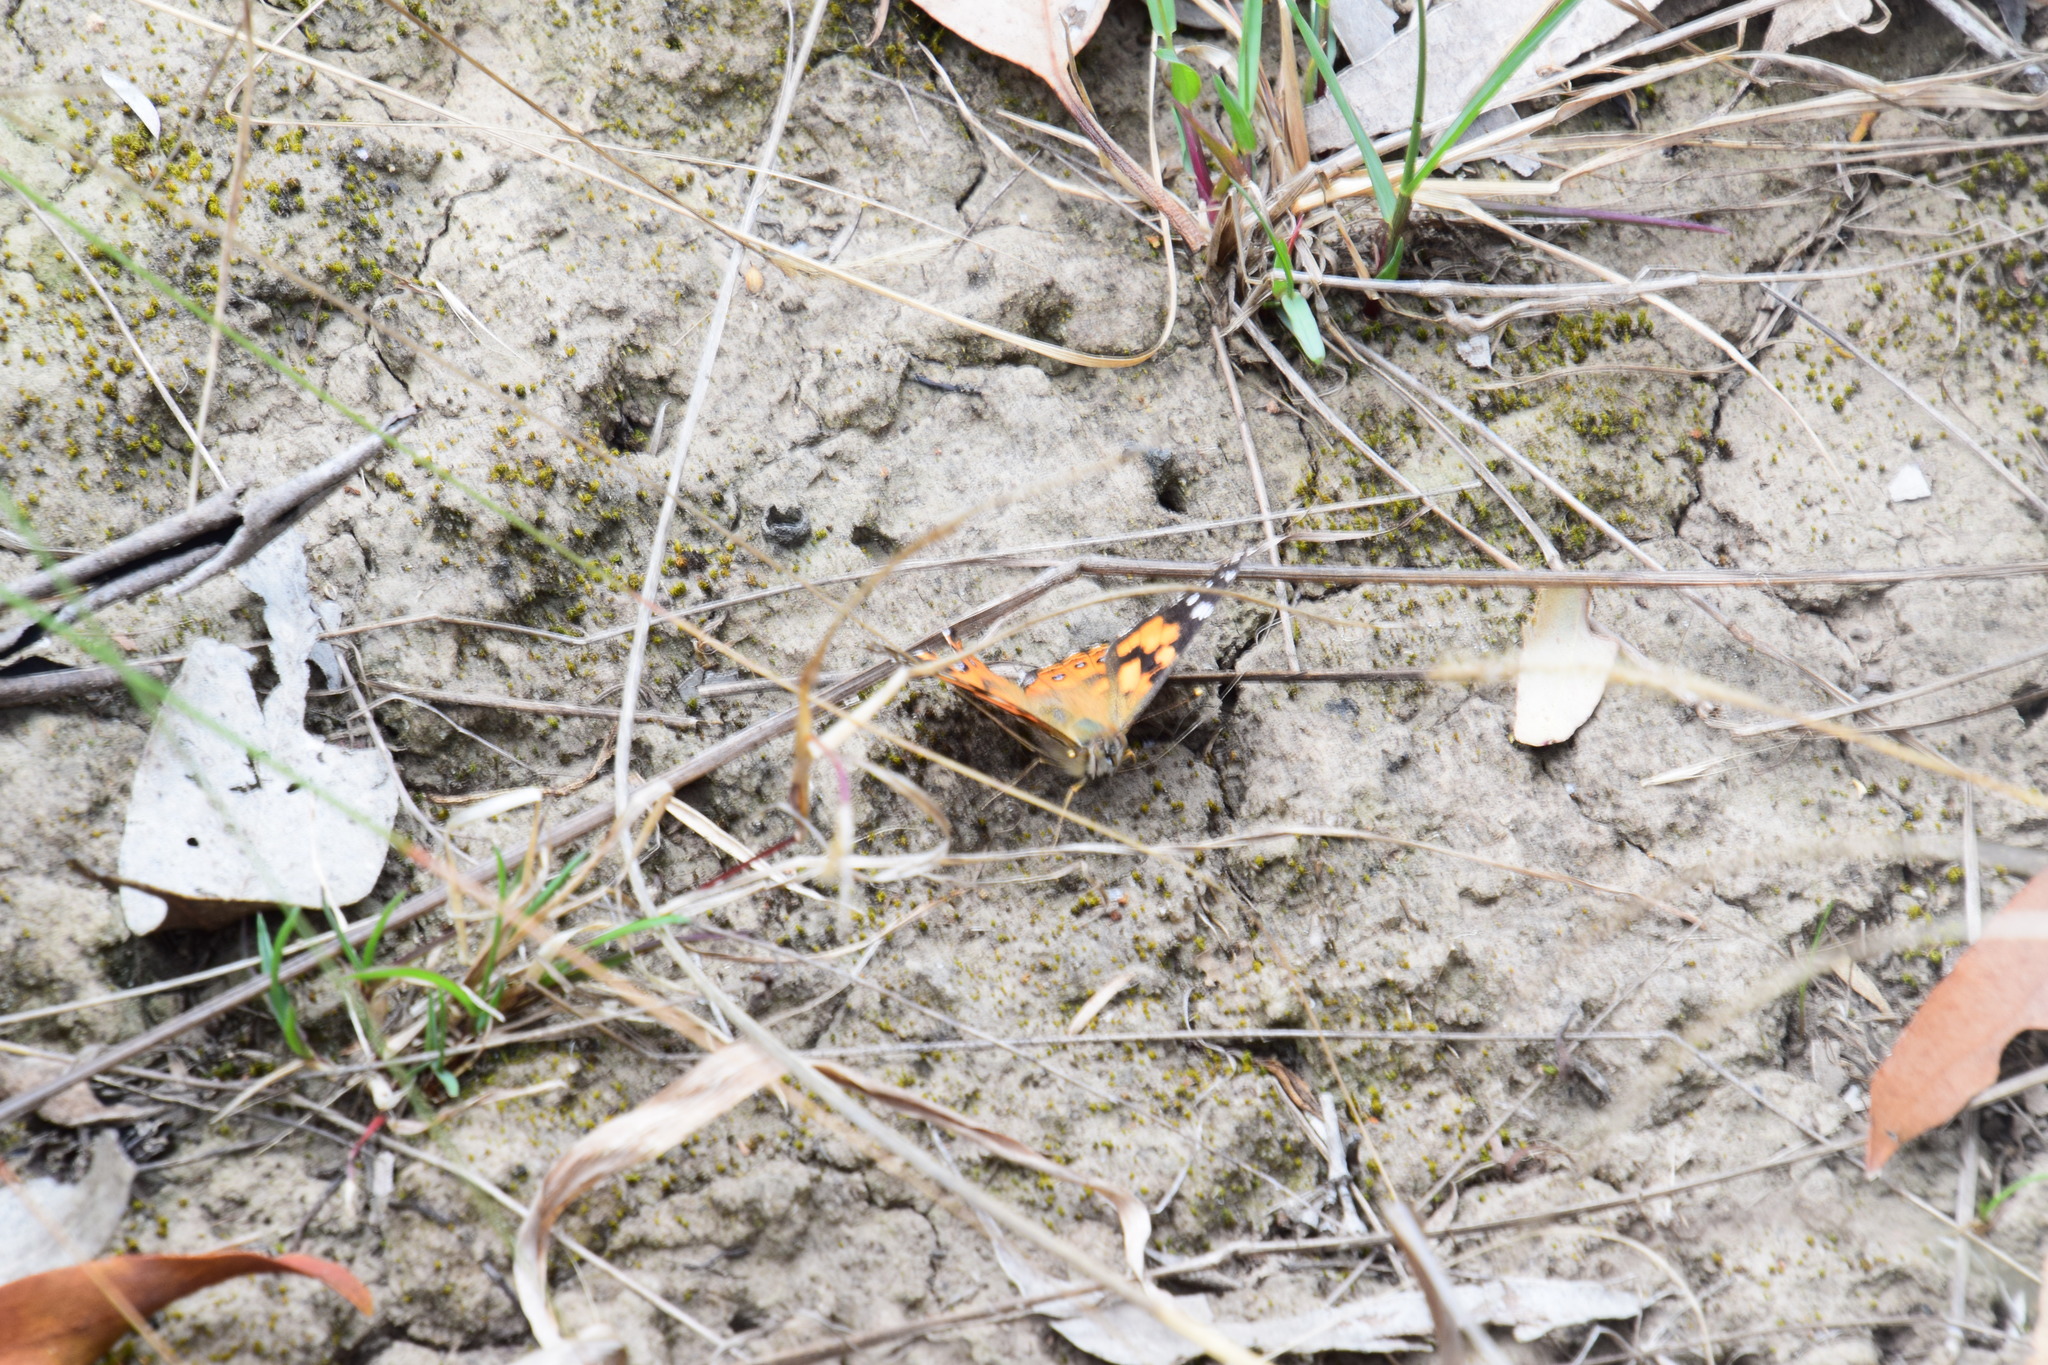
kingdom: Animalia
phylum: Arthropoda
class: Insecta
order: Lepidoptera
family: Nymphalidae
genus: Vanessa
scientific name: Vanessa kershawi
